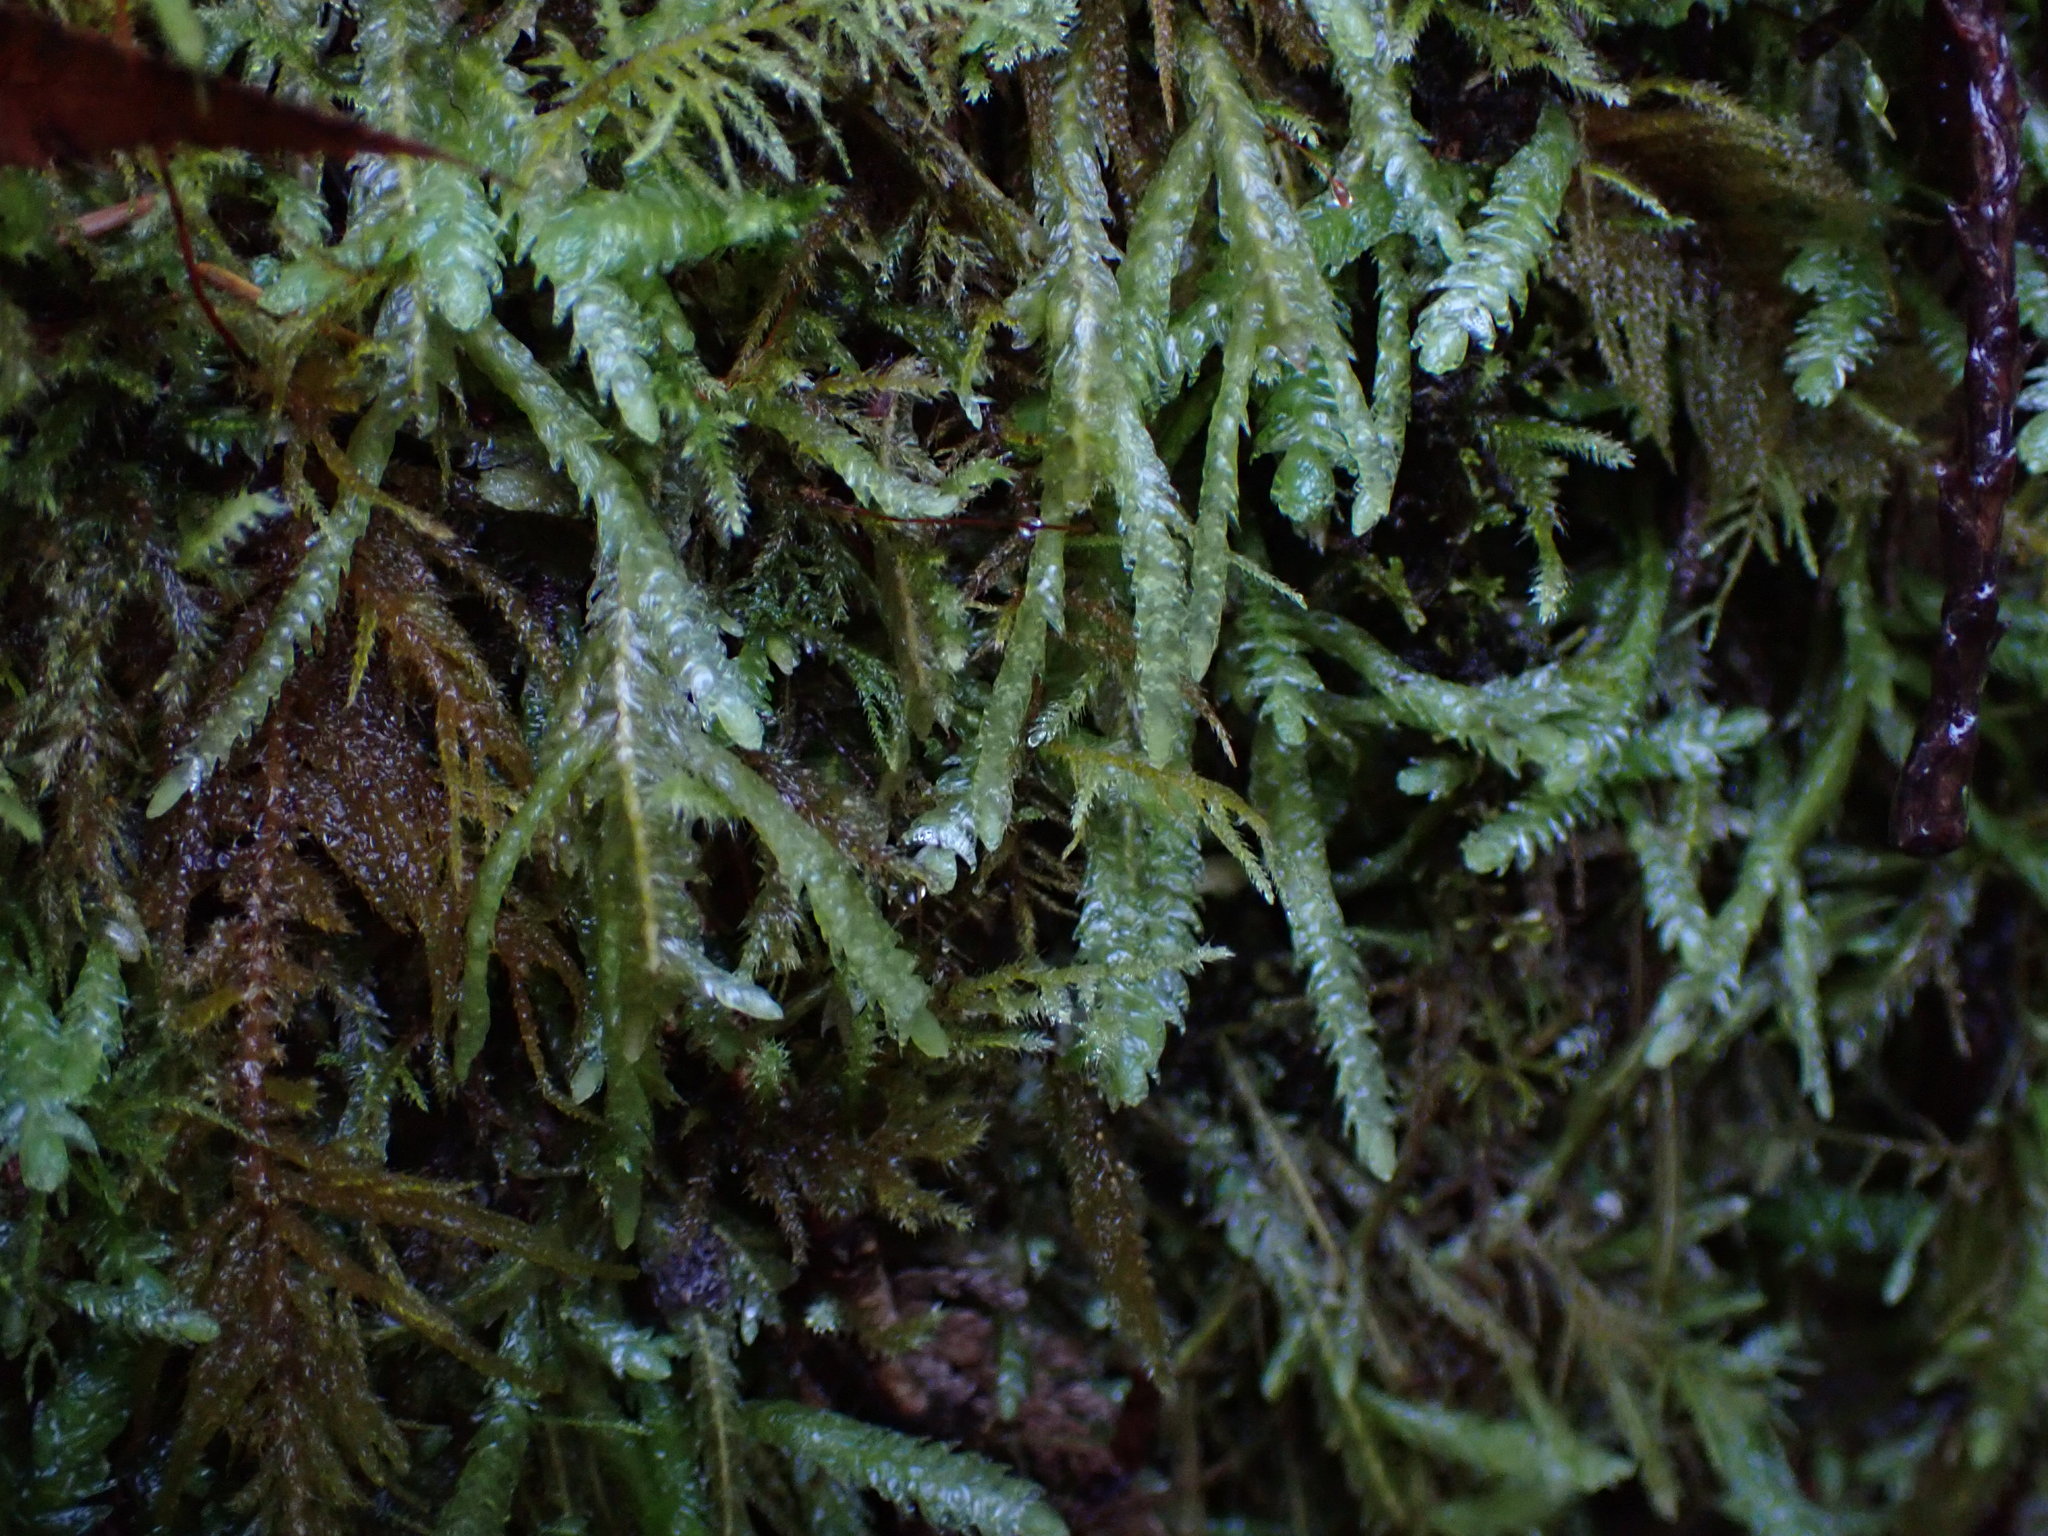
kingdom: Plantae
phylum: Bryophyta
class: Bryopsida
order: Hypnales
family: Plagiotheciaceae
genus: Plagiothecium
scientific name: Plagiothecium undulatum
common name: Waved silk-moss
